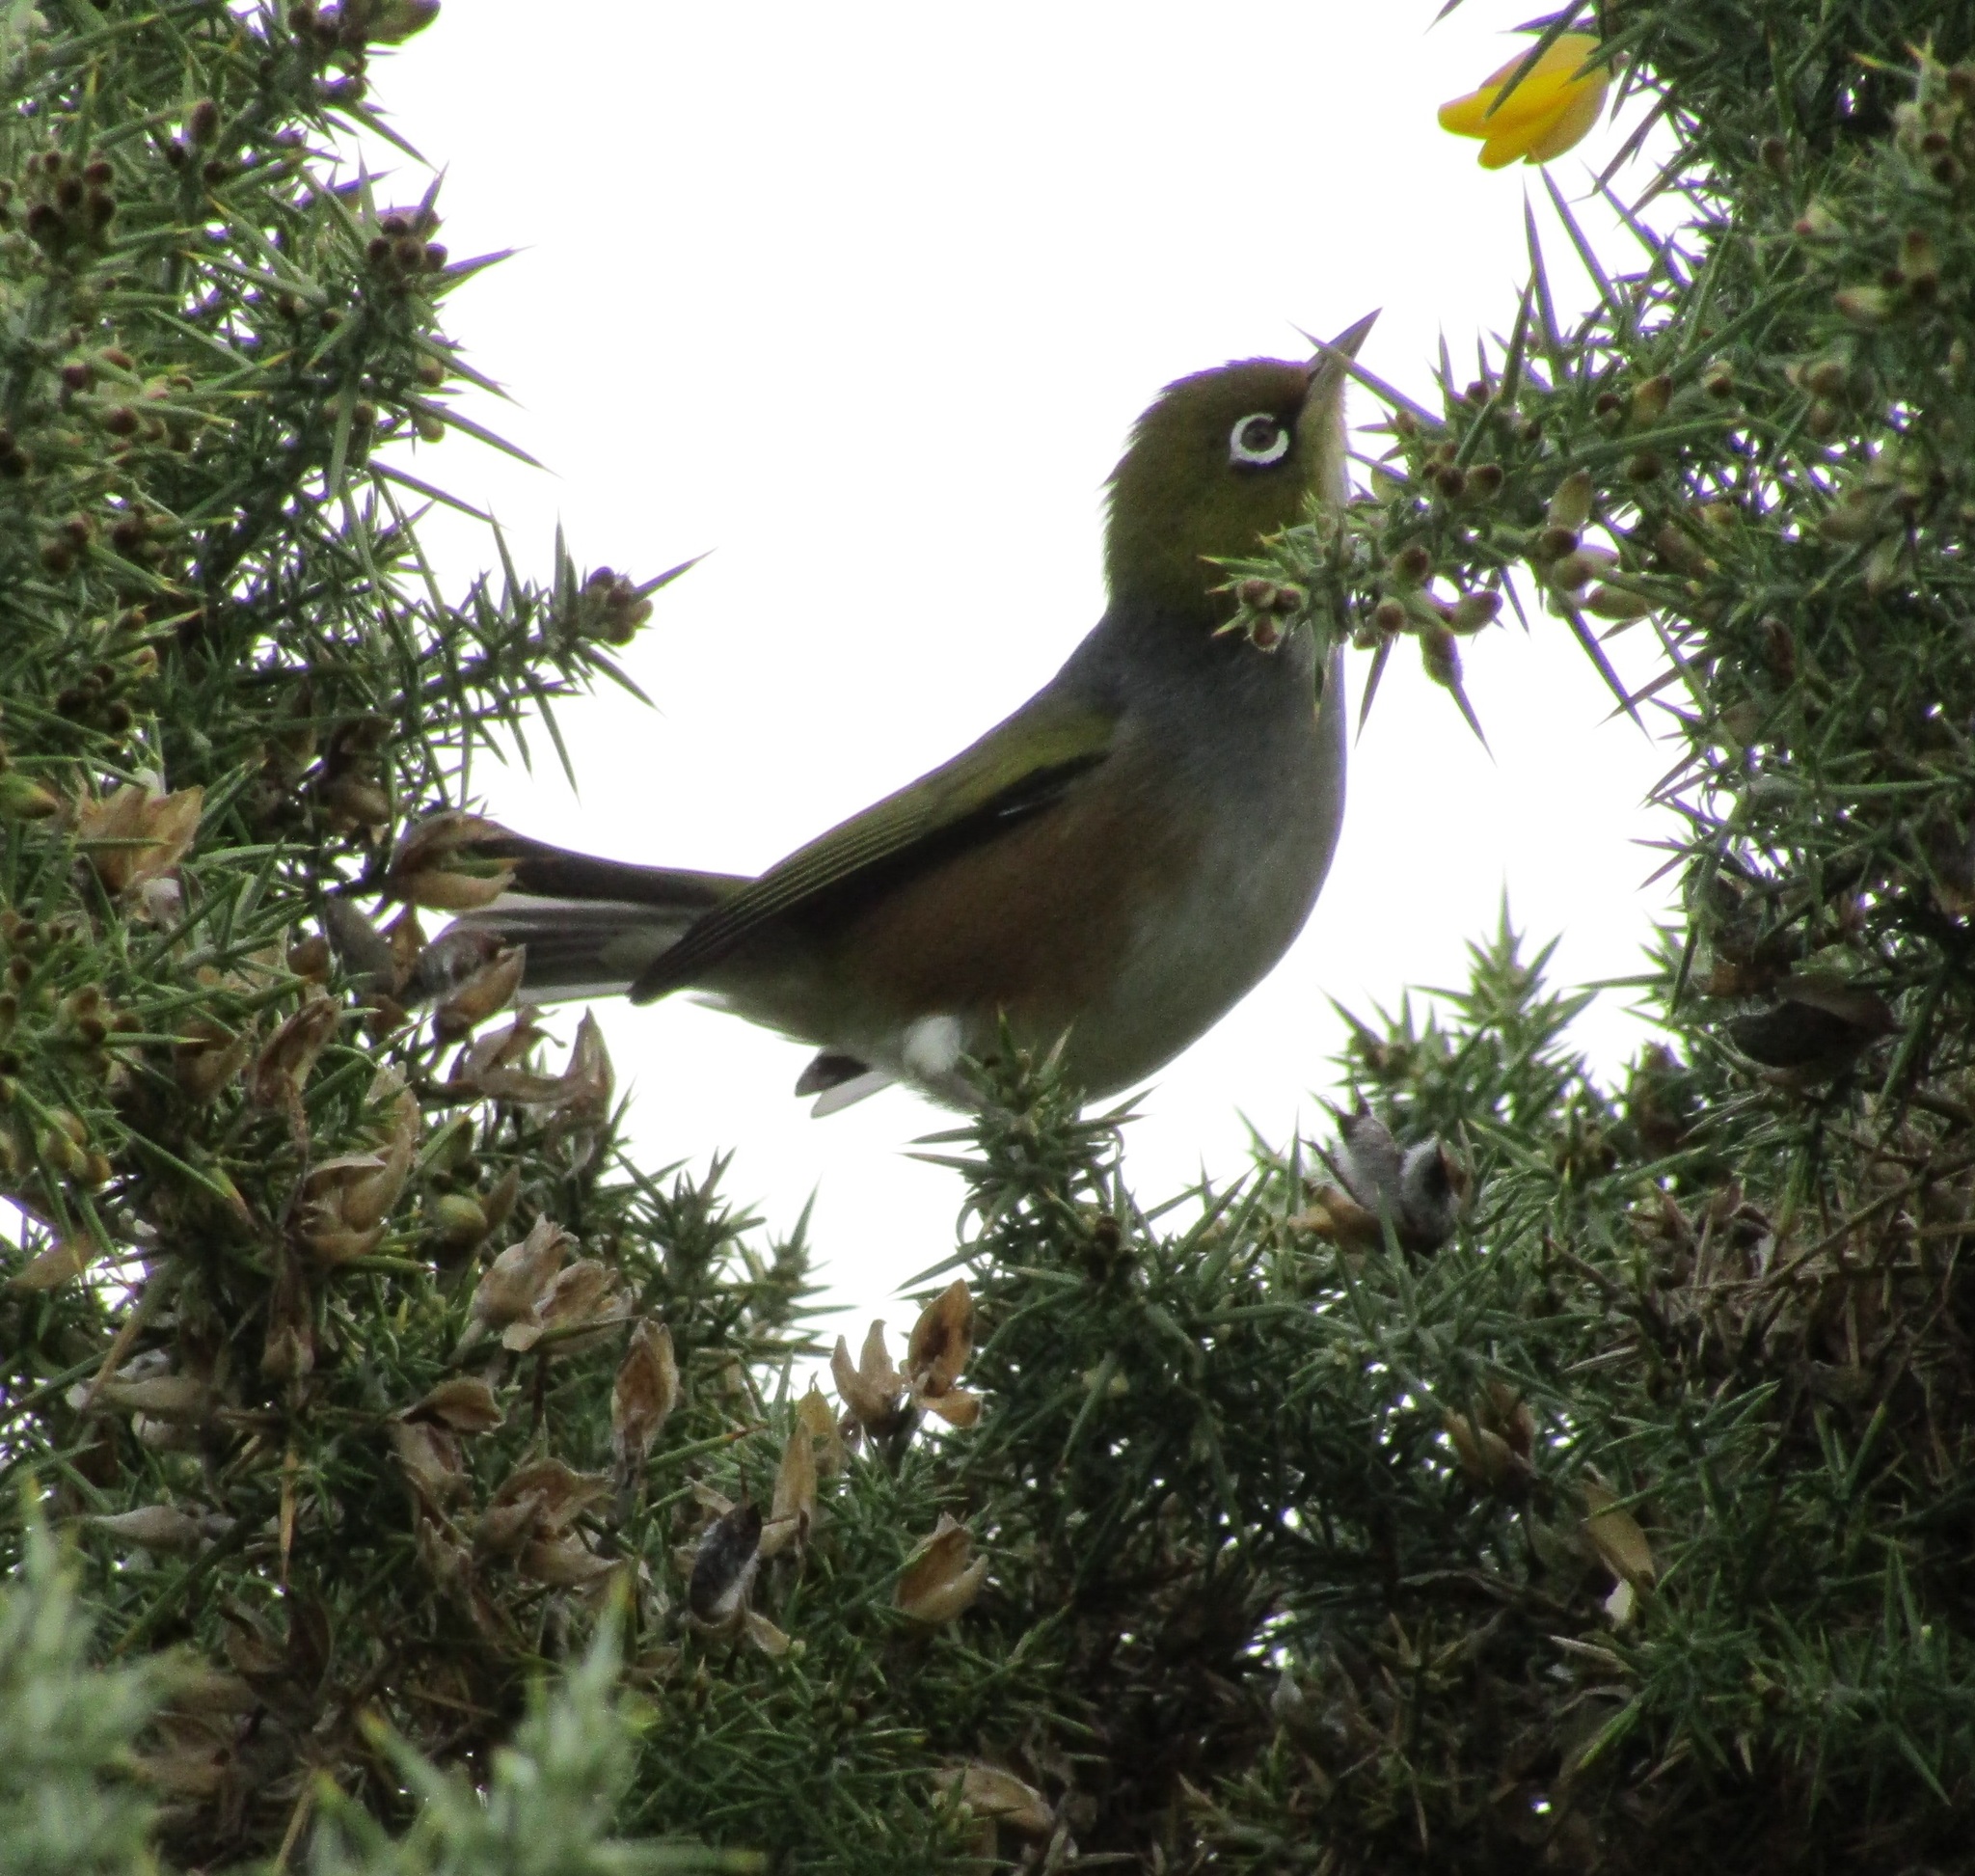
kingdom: Animalia
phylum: Chordata
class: Aves
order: Passeriformes
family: Zosteropidae
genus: Zosterops
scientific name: Zosterops lateralis
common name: Silvereye
